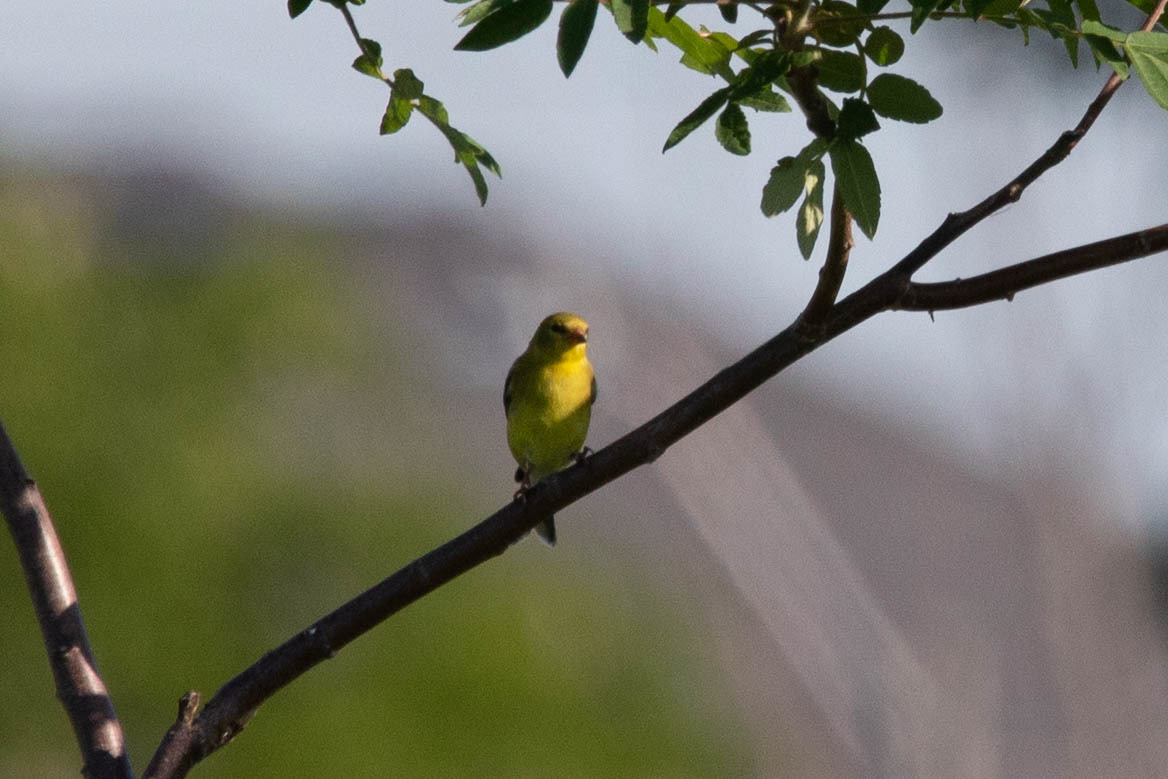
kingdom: Animalia
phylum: Chordata
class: Aves
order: Passeriformes
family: Fringillidae
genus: Spinus
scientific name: Spinus tristis
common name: American goldfinch
